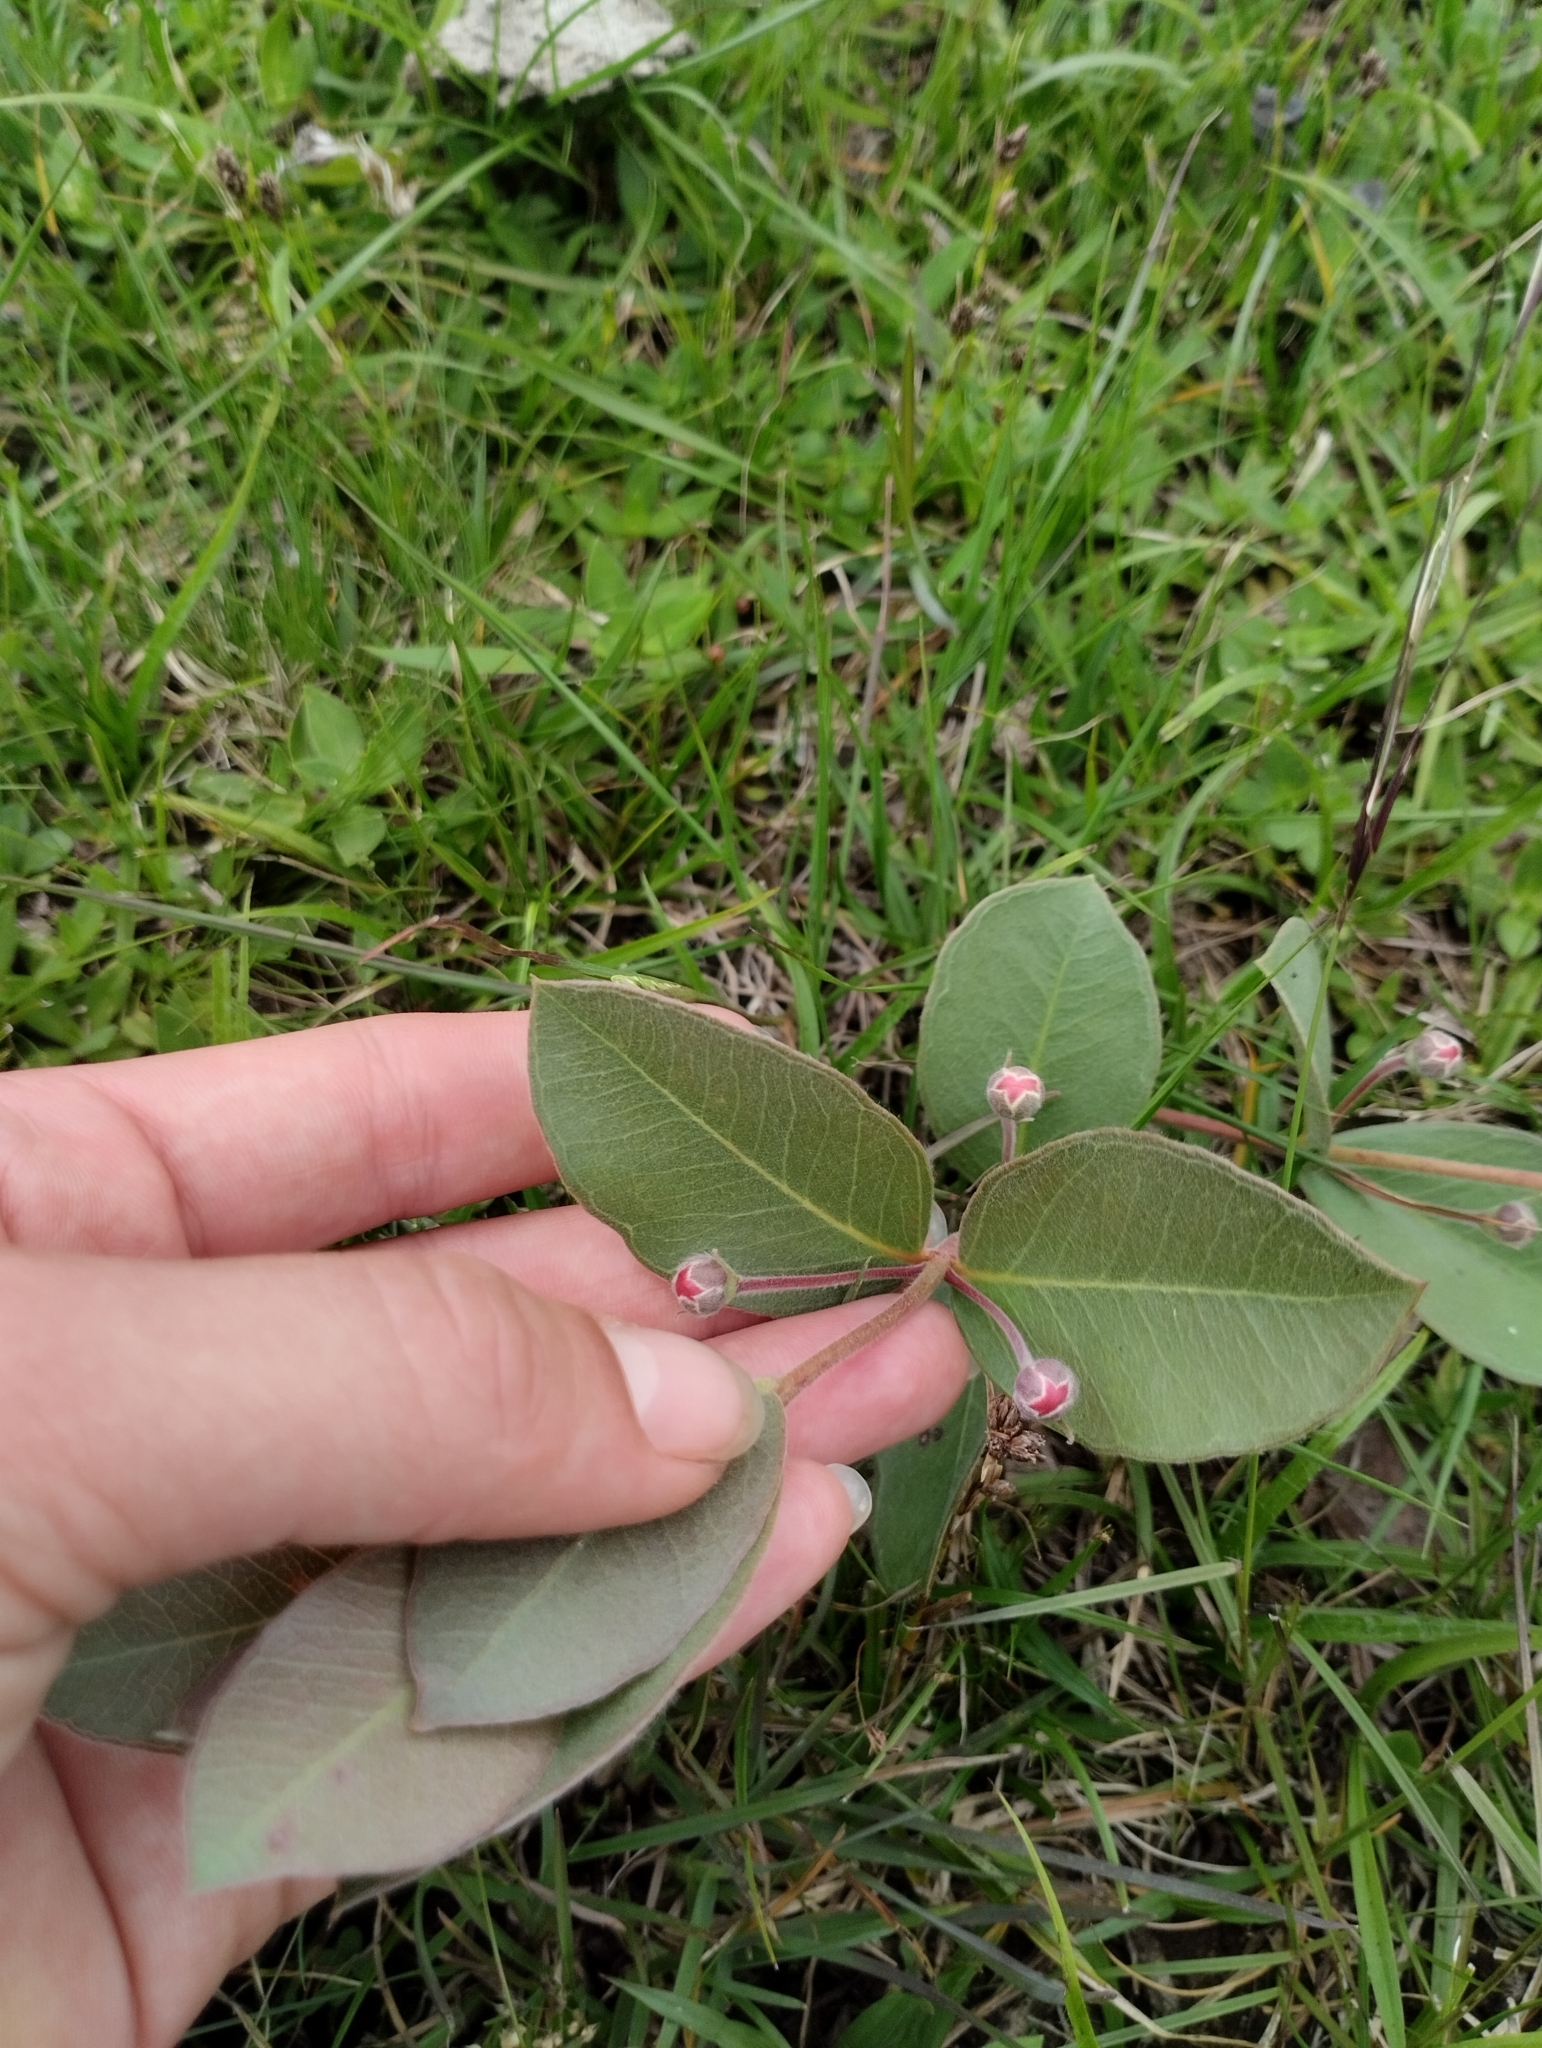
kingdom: Plantae
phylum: Tracheophyta
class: Magnoliopsida
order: Myrtales
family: Myrtaceae
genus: Psidium
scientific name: Psidium salutare
